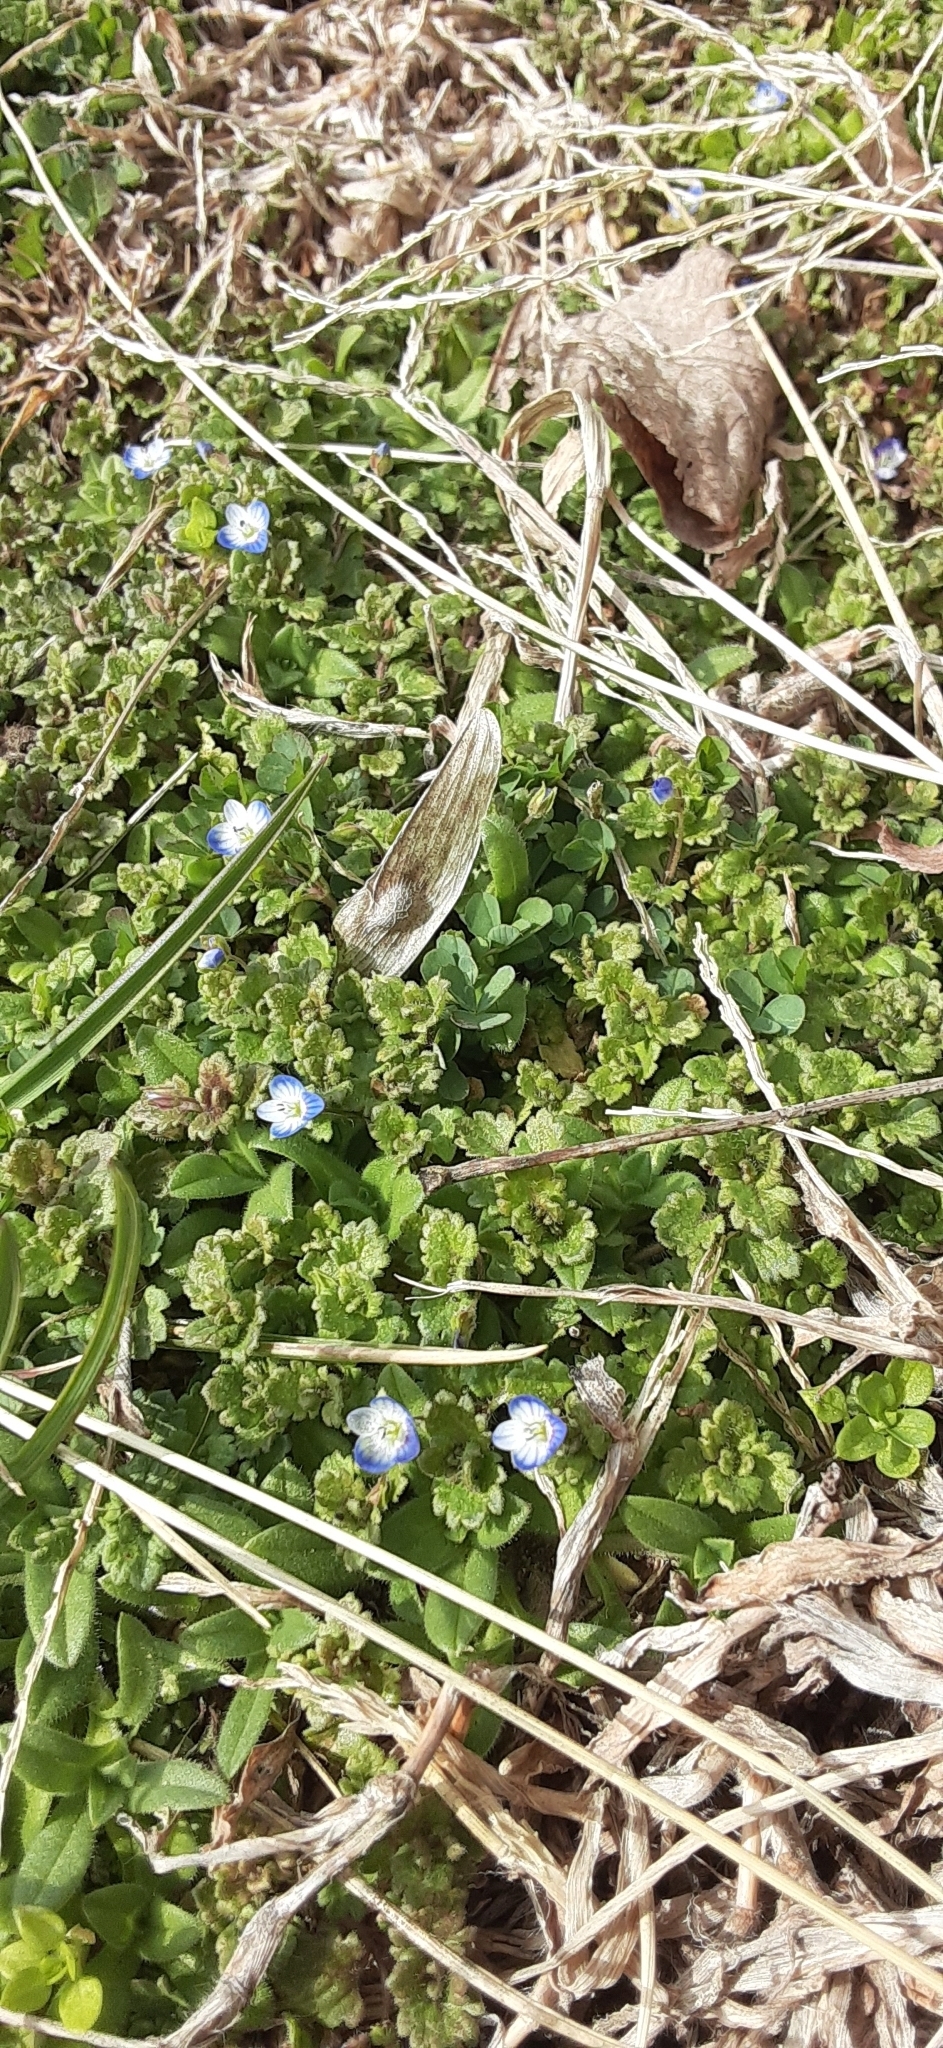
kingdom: Plantae
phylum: Tracheophyta
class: Magnoliopsida
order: Lamiales
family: Plantaginaceae
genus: Veronica
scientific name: Veronica persica
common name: Common field-speedwell
